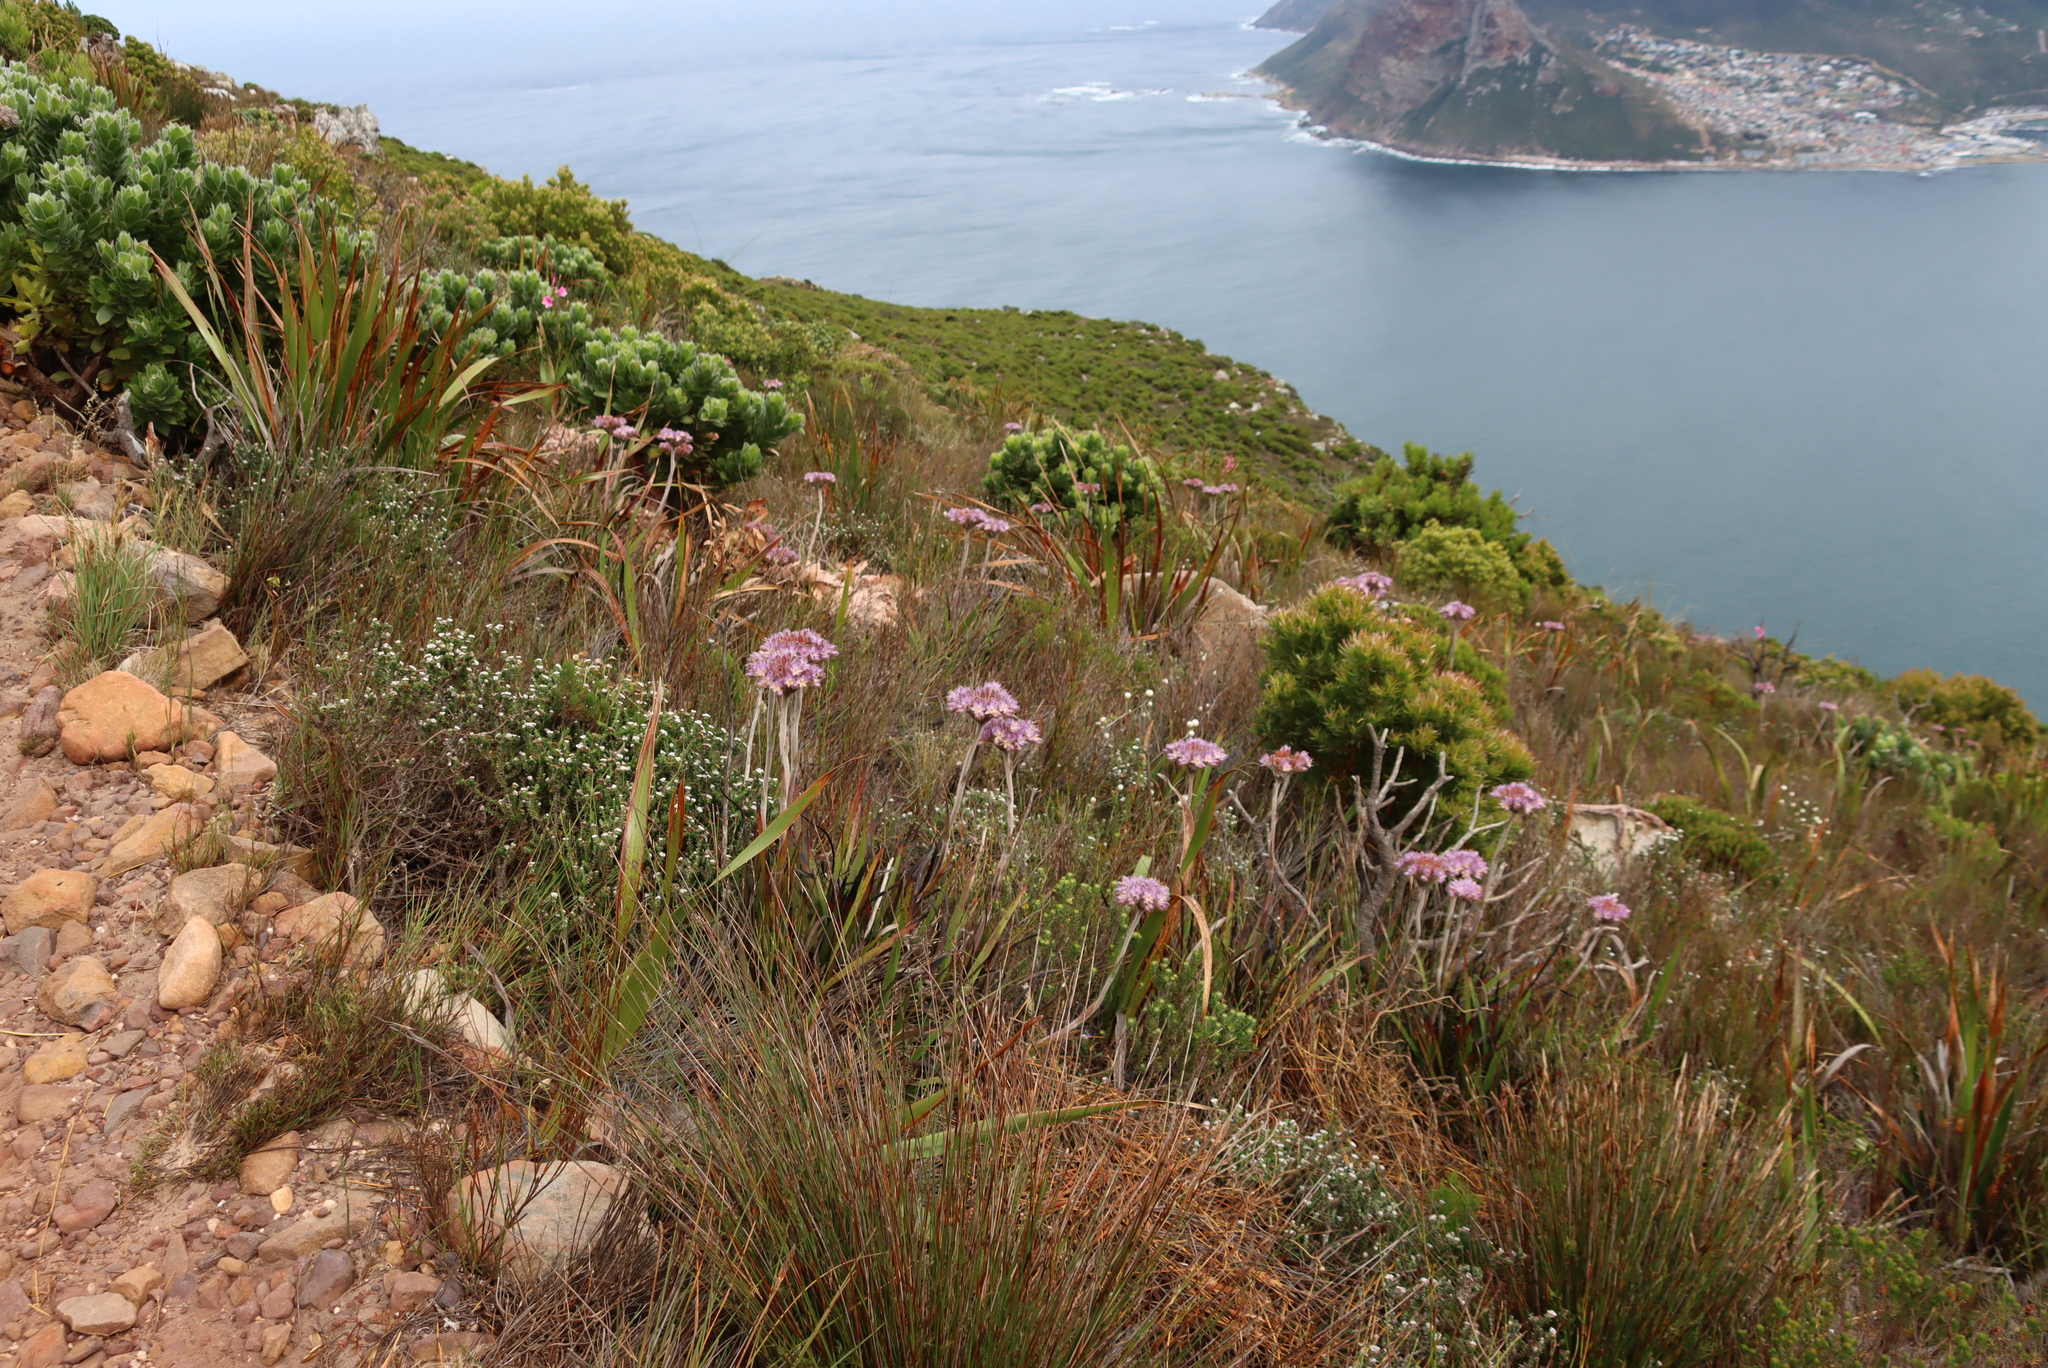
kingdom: Plantae
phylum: Tracheophyta
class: Liliopsida
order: Commelinales
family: Haemodoraceae
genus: Dilatris
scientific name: Dilatris corymbosa
